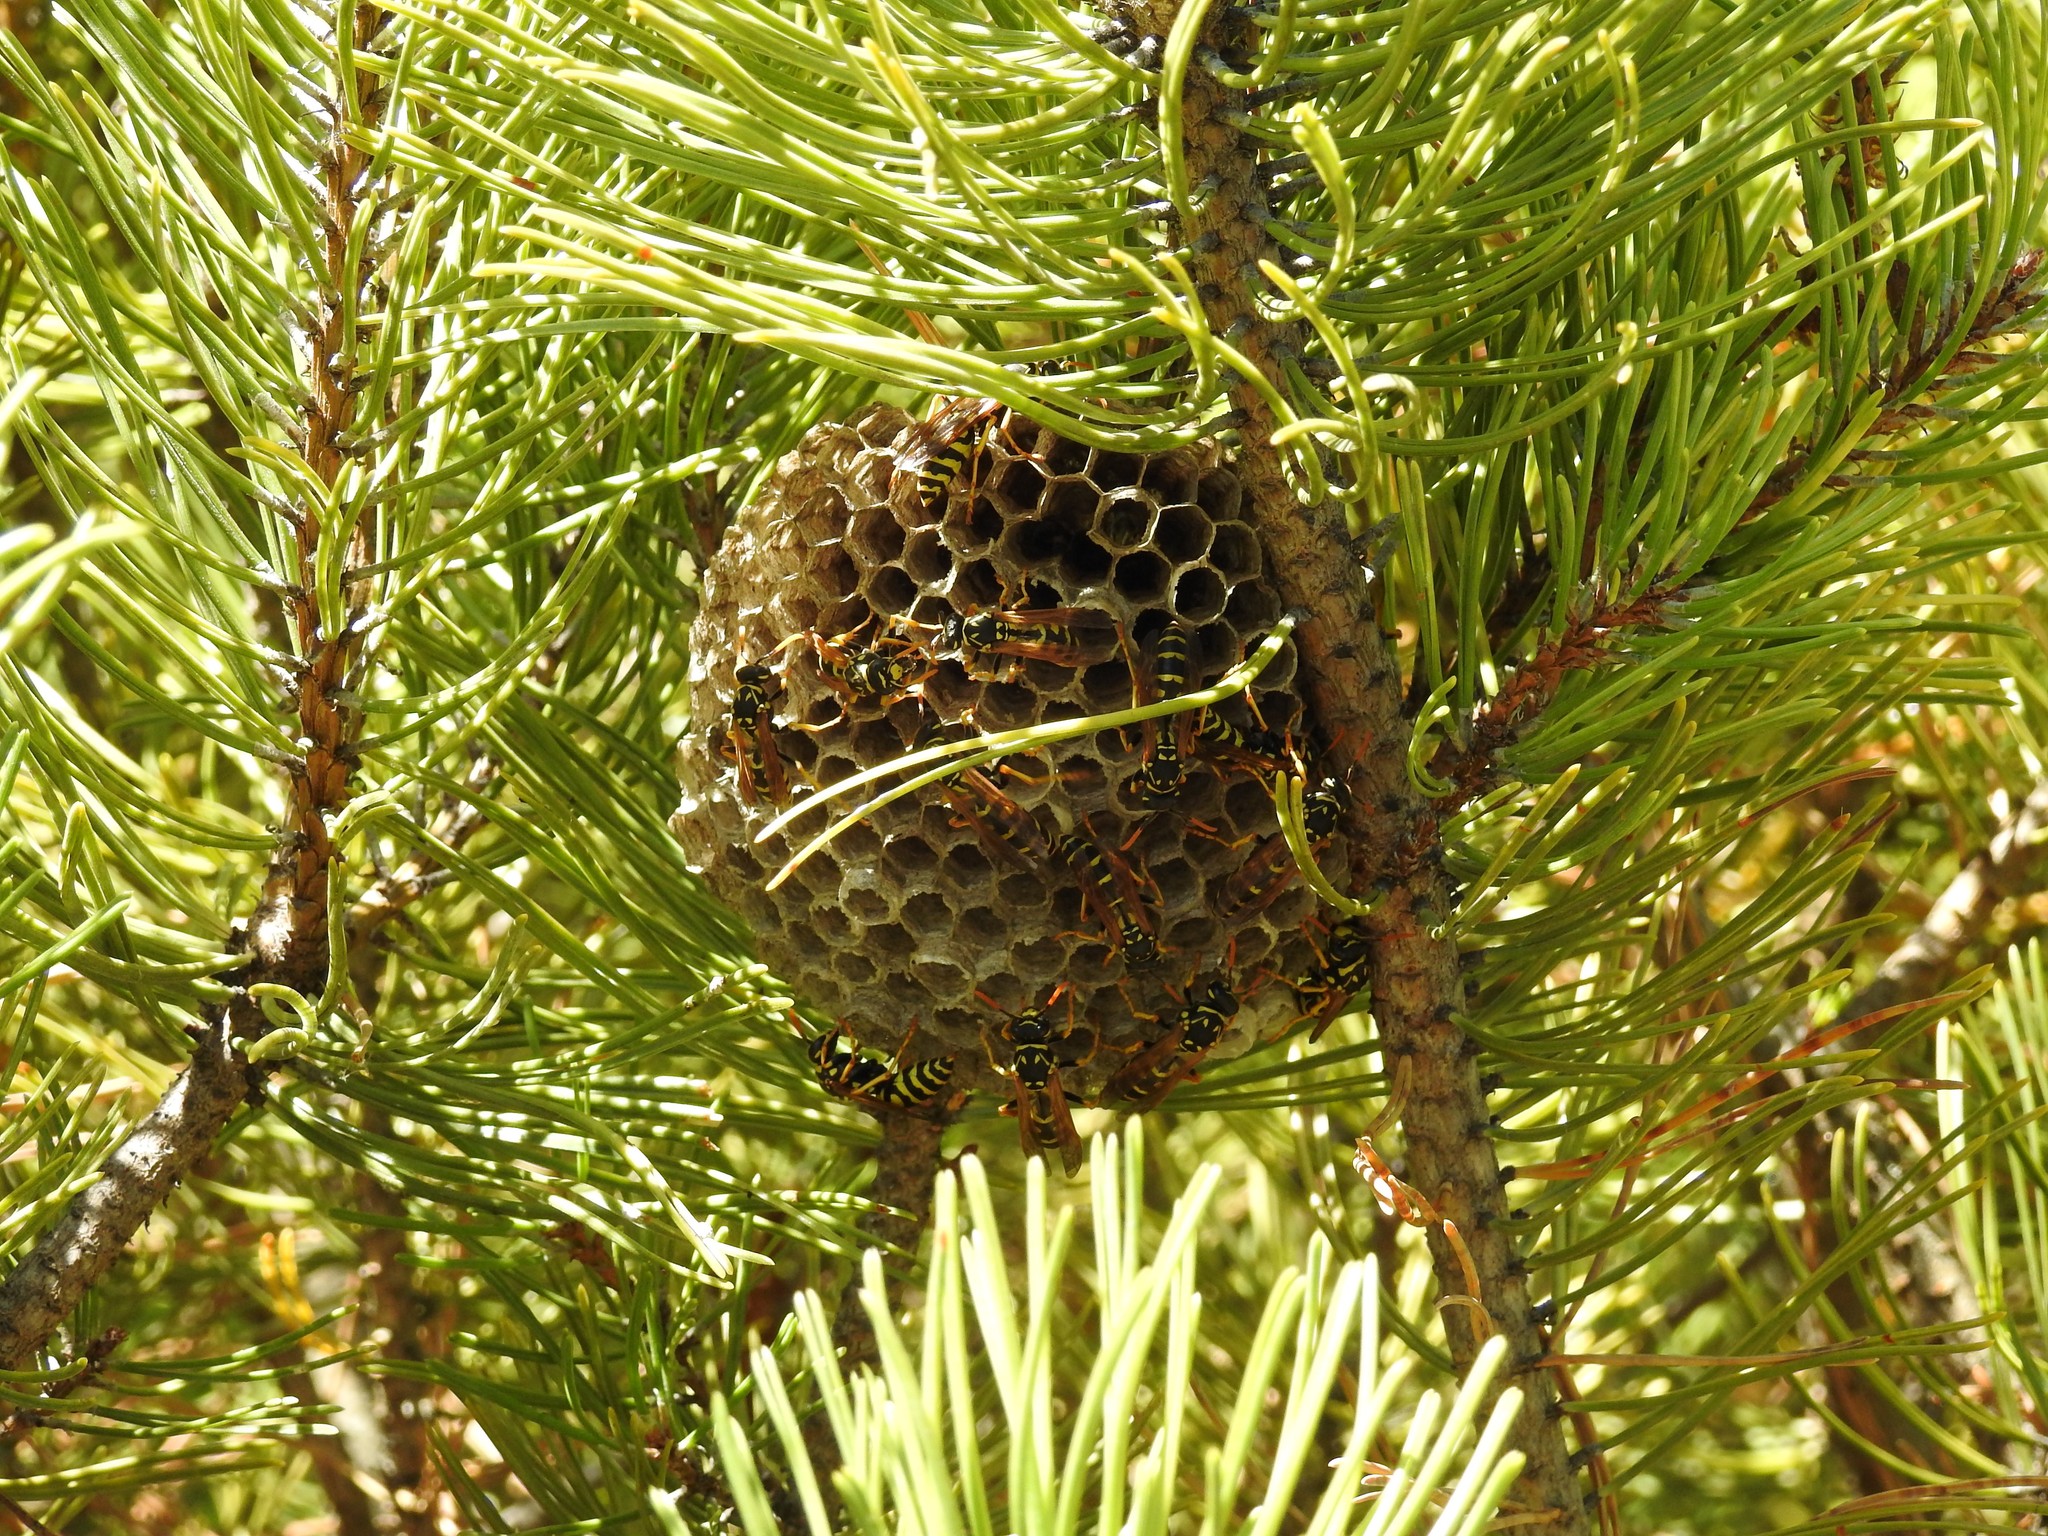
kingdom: Animalia
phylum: Arthropoda
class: Insecta
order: Hymenoptera
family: Eumenidae
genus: Polistes
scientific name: Polistes dominula
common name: Paper wasp
